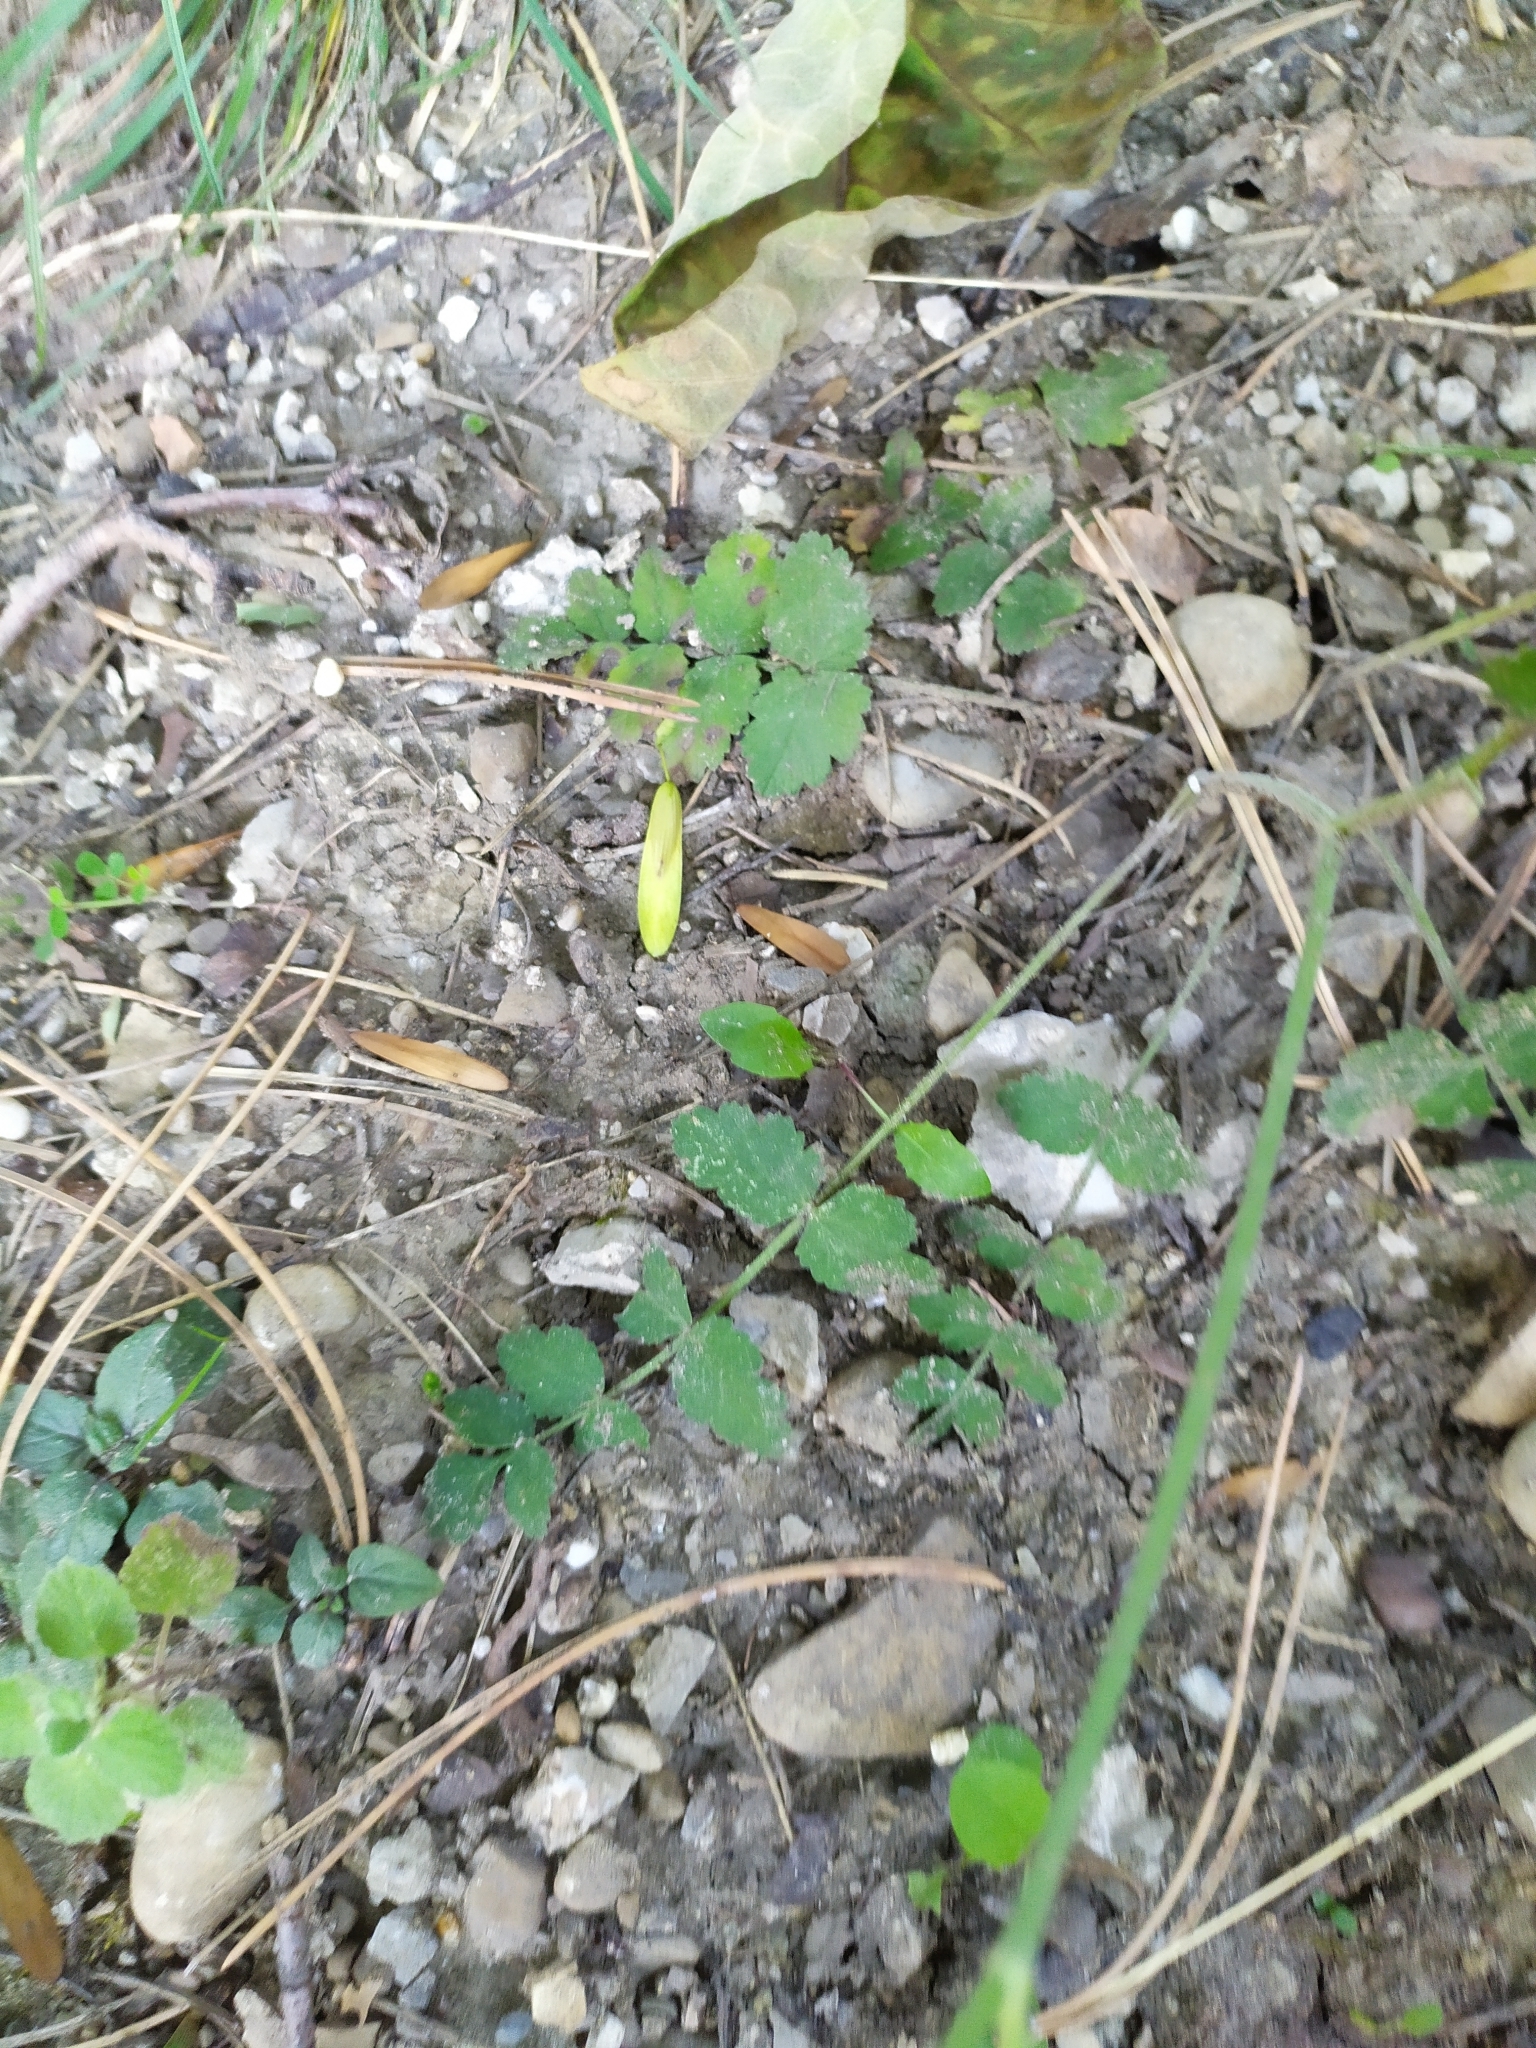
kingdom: Plantae
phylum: Tracheophyta
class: Magnoliopsida
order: Apiales
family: Apiaceae
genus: Pimpinella
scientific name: Pimpinella saxifraga
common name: Burnet-saxifrage
